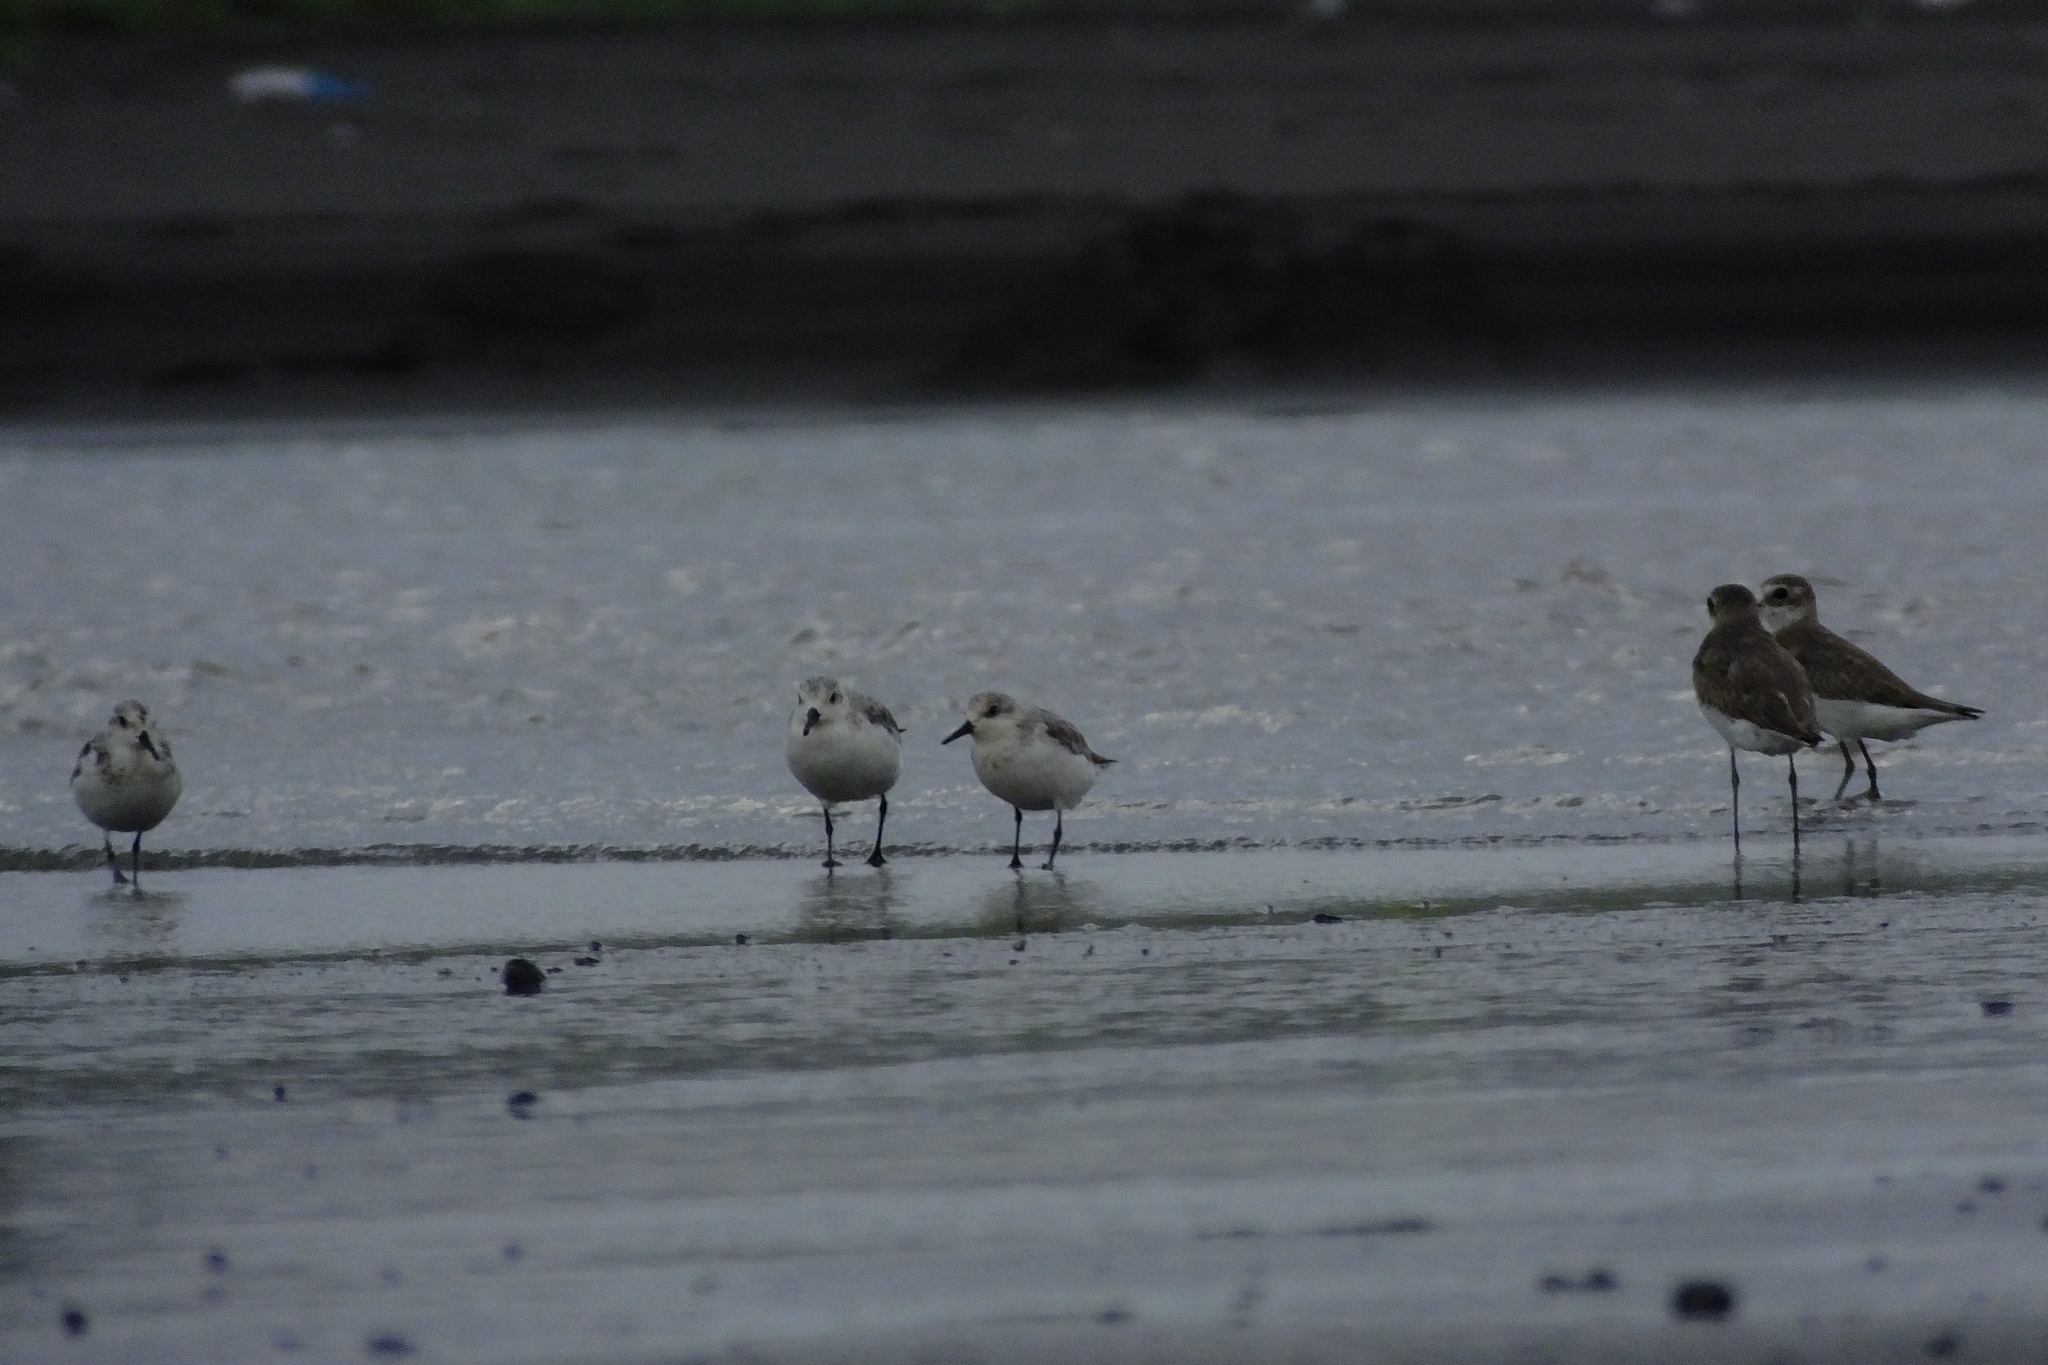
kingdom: Animalia
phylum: Chordata
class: Aves
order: Charadriiformes
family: Scolopacidae
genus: Calidris
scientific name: Calidris alba
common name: Sanderling
